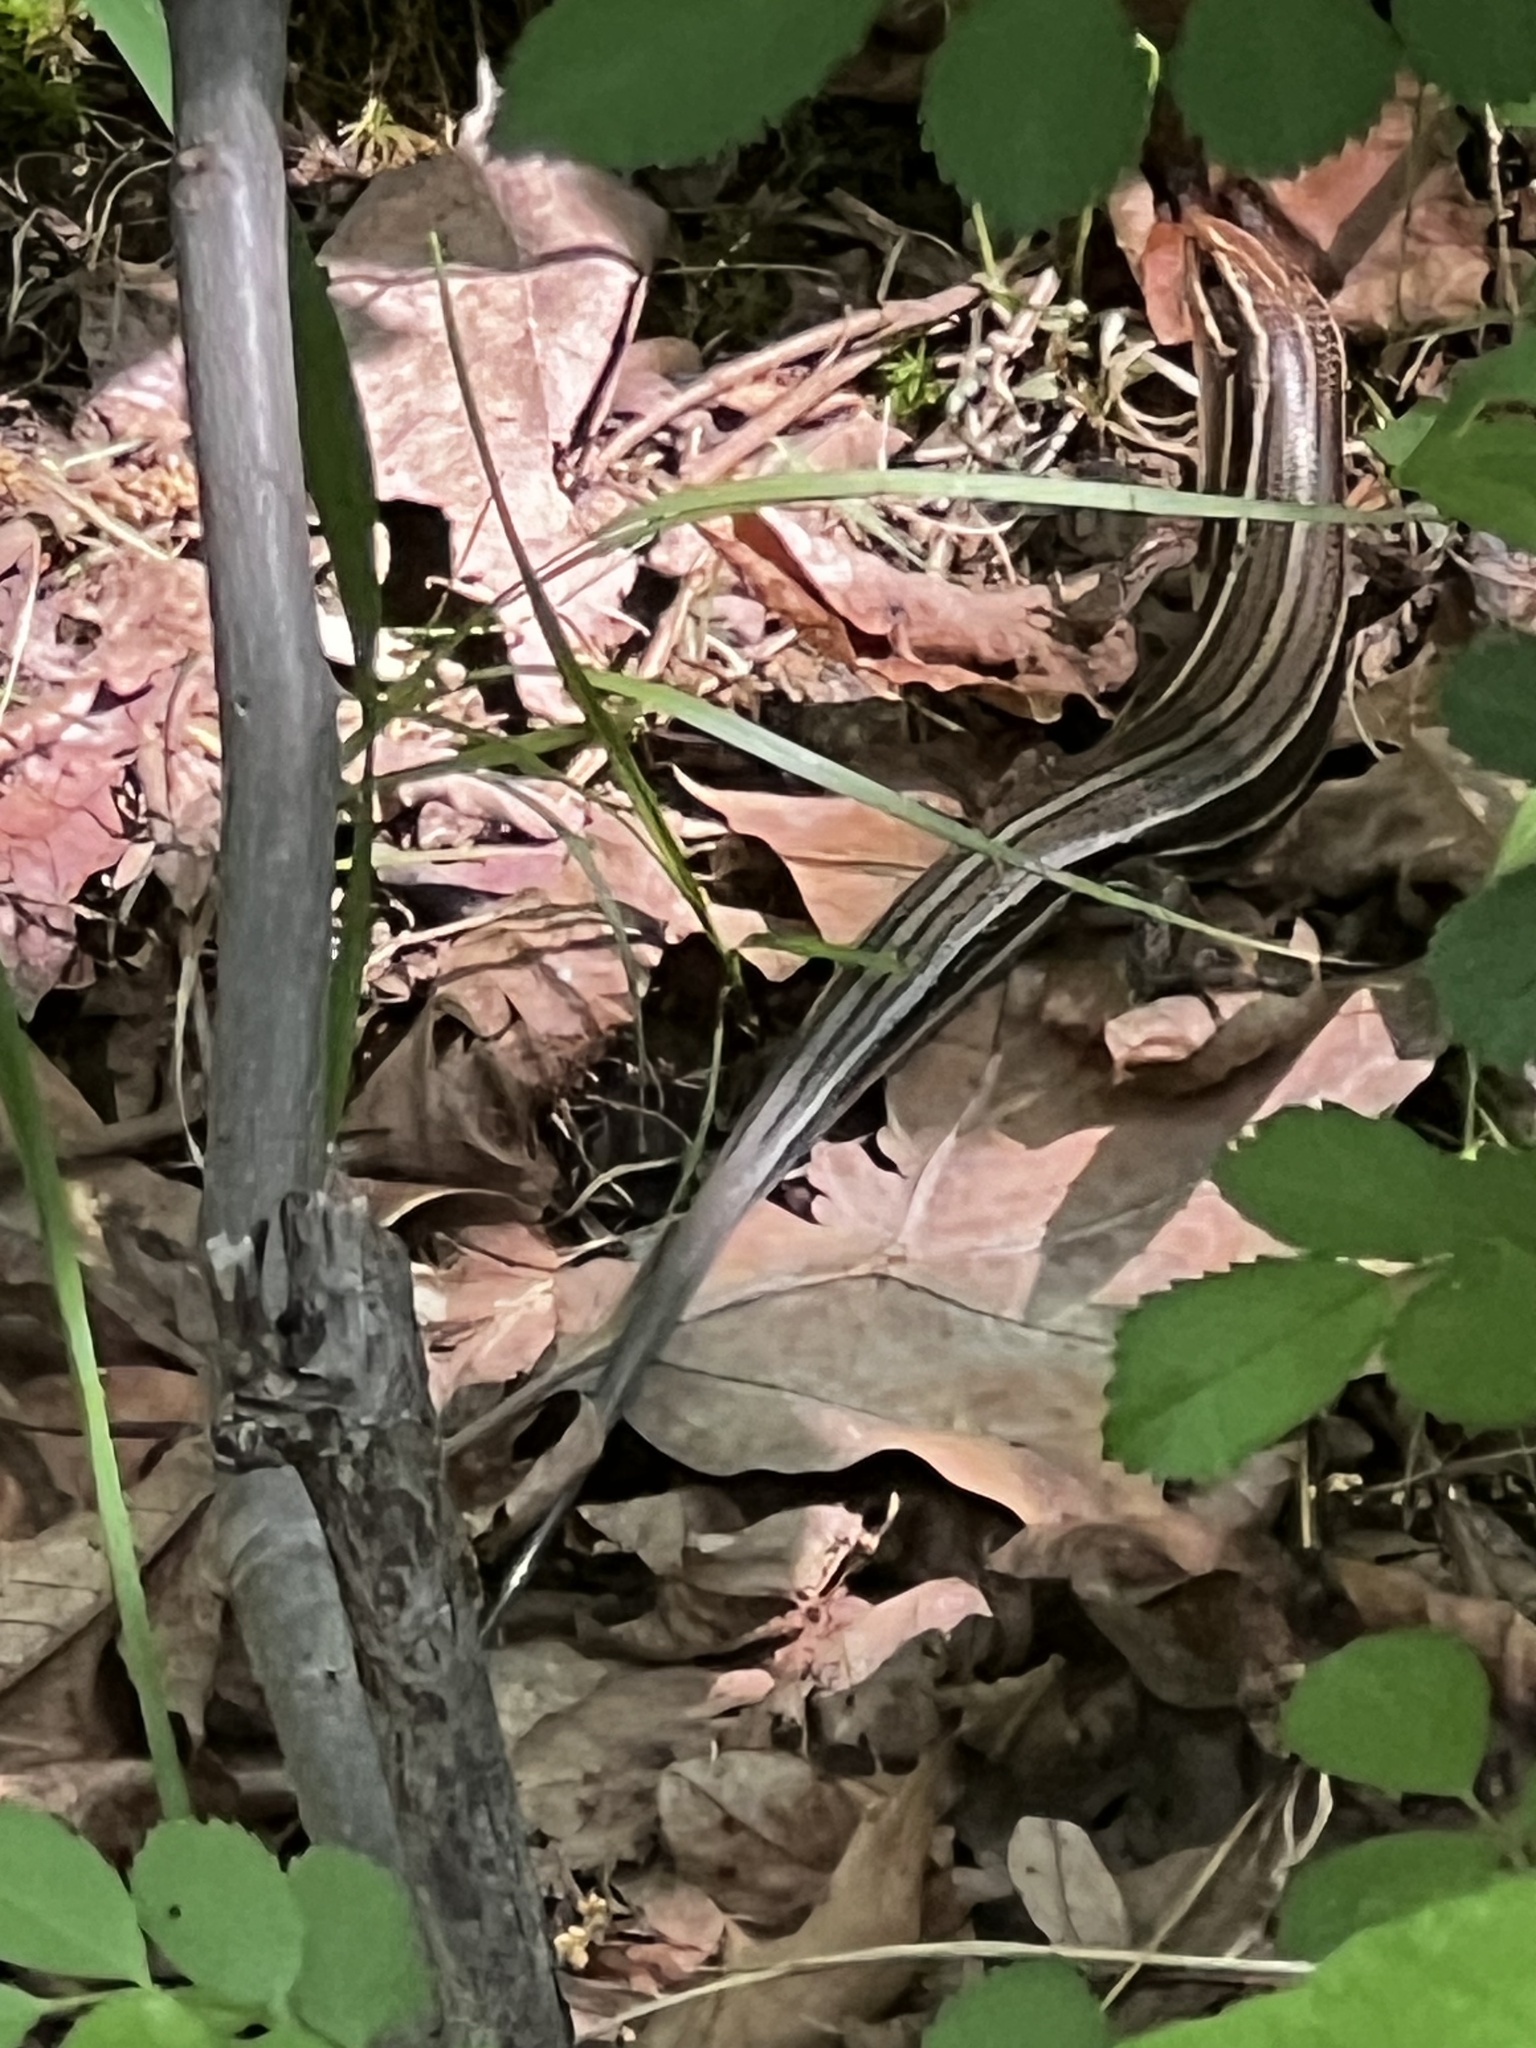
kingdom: Animalia
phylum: Chordata
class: Squamata
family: Scincidae
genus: Plestiodon
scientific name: Plestiodon laticeps
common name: Broadhead skink
